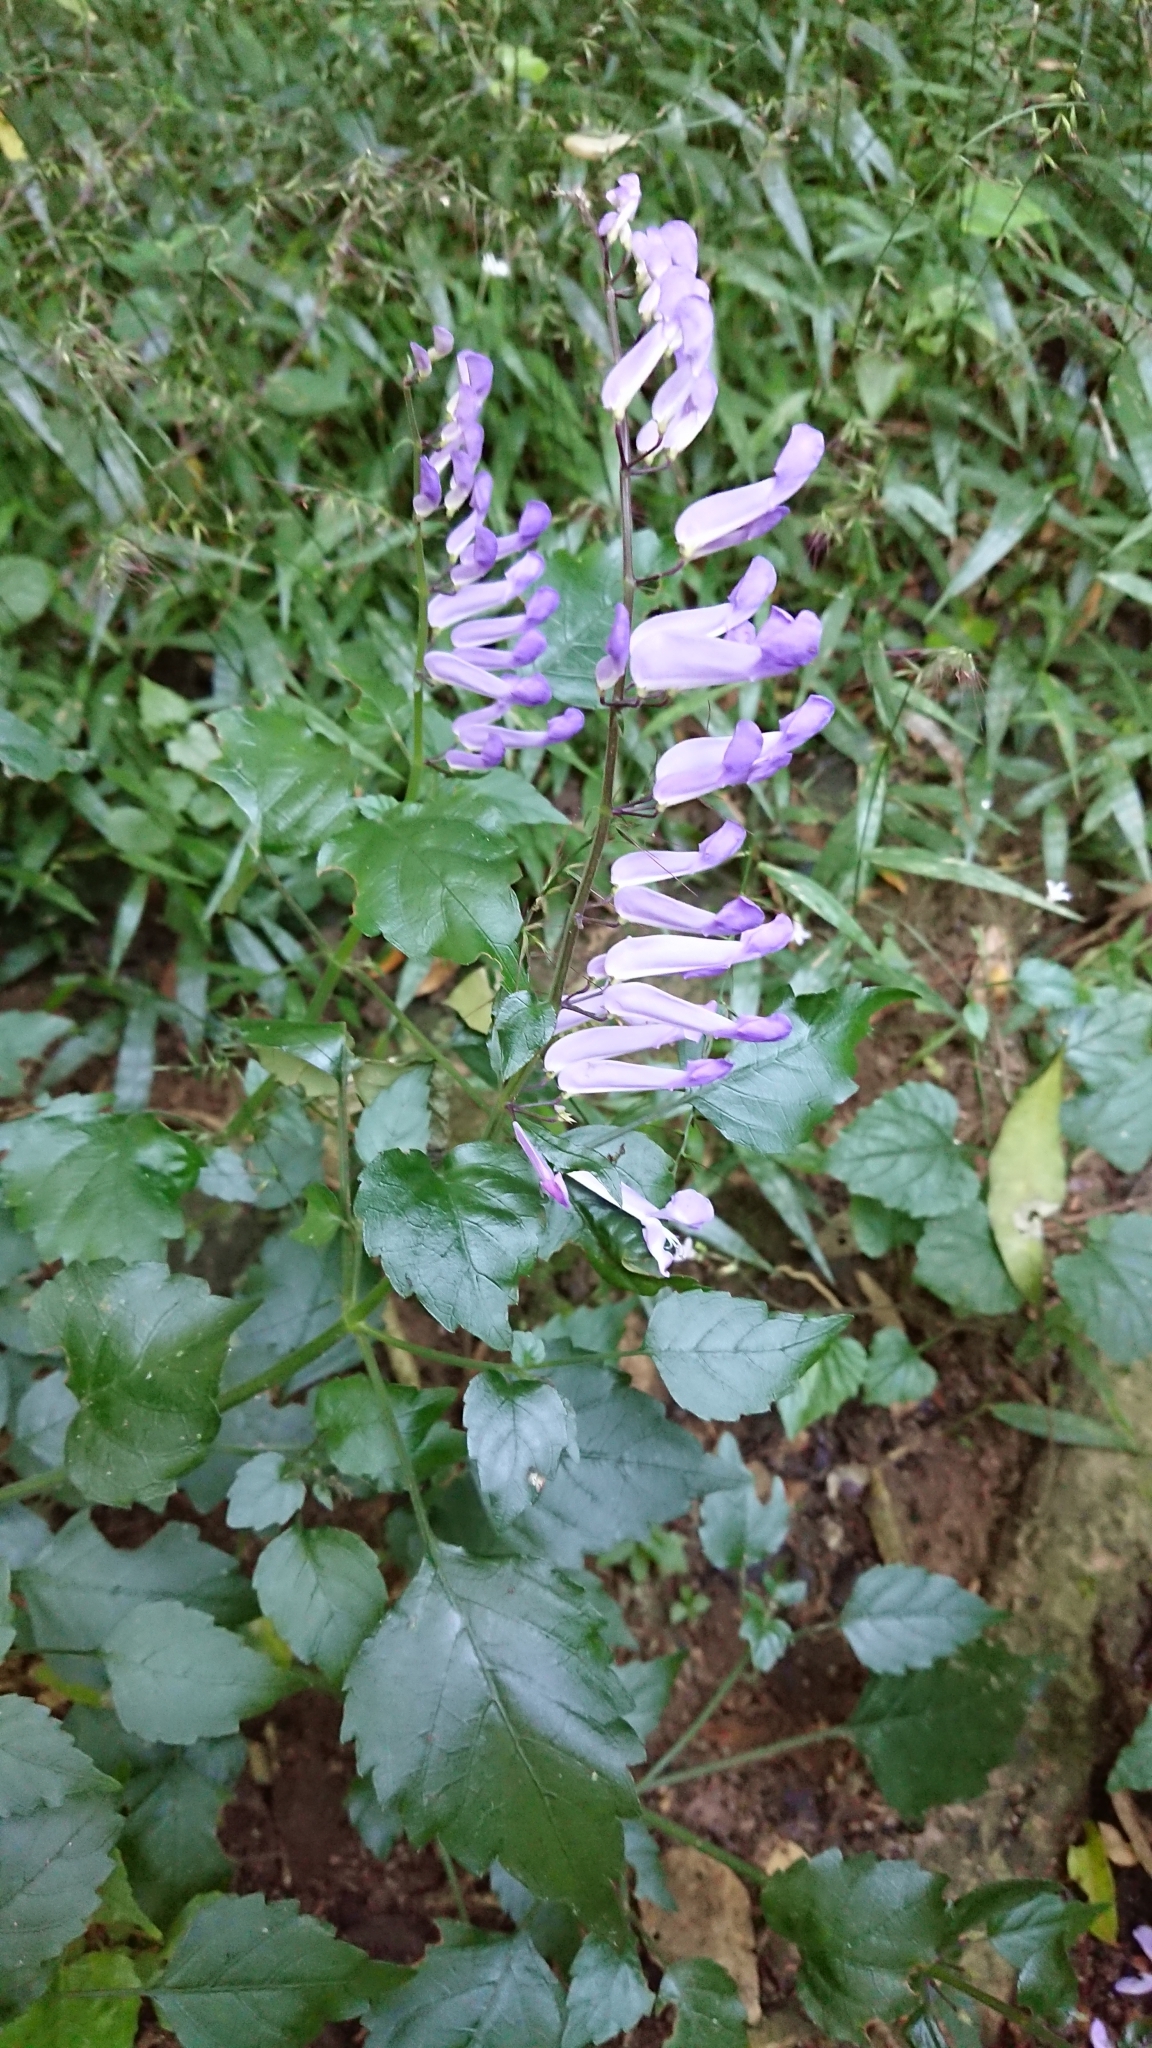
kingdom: Plantae
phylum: Tracheophyta
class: Magnoliopsida
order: Lamiales
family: Lamiaceae
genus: Plectranthus
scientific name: Plectranthus saccatus
